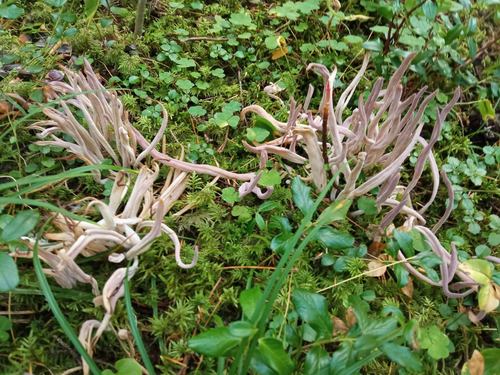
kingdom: Fungi
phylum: Basidiomycota
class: Agaricomycetes
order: Hymenochaetales
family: Rickenellaceae
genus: Alloclavaria
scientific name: Alloclavaria purpurea
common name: Purple spindles
